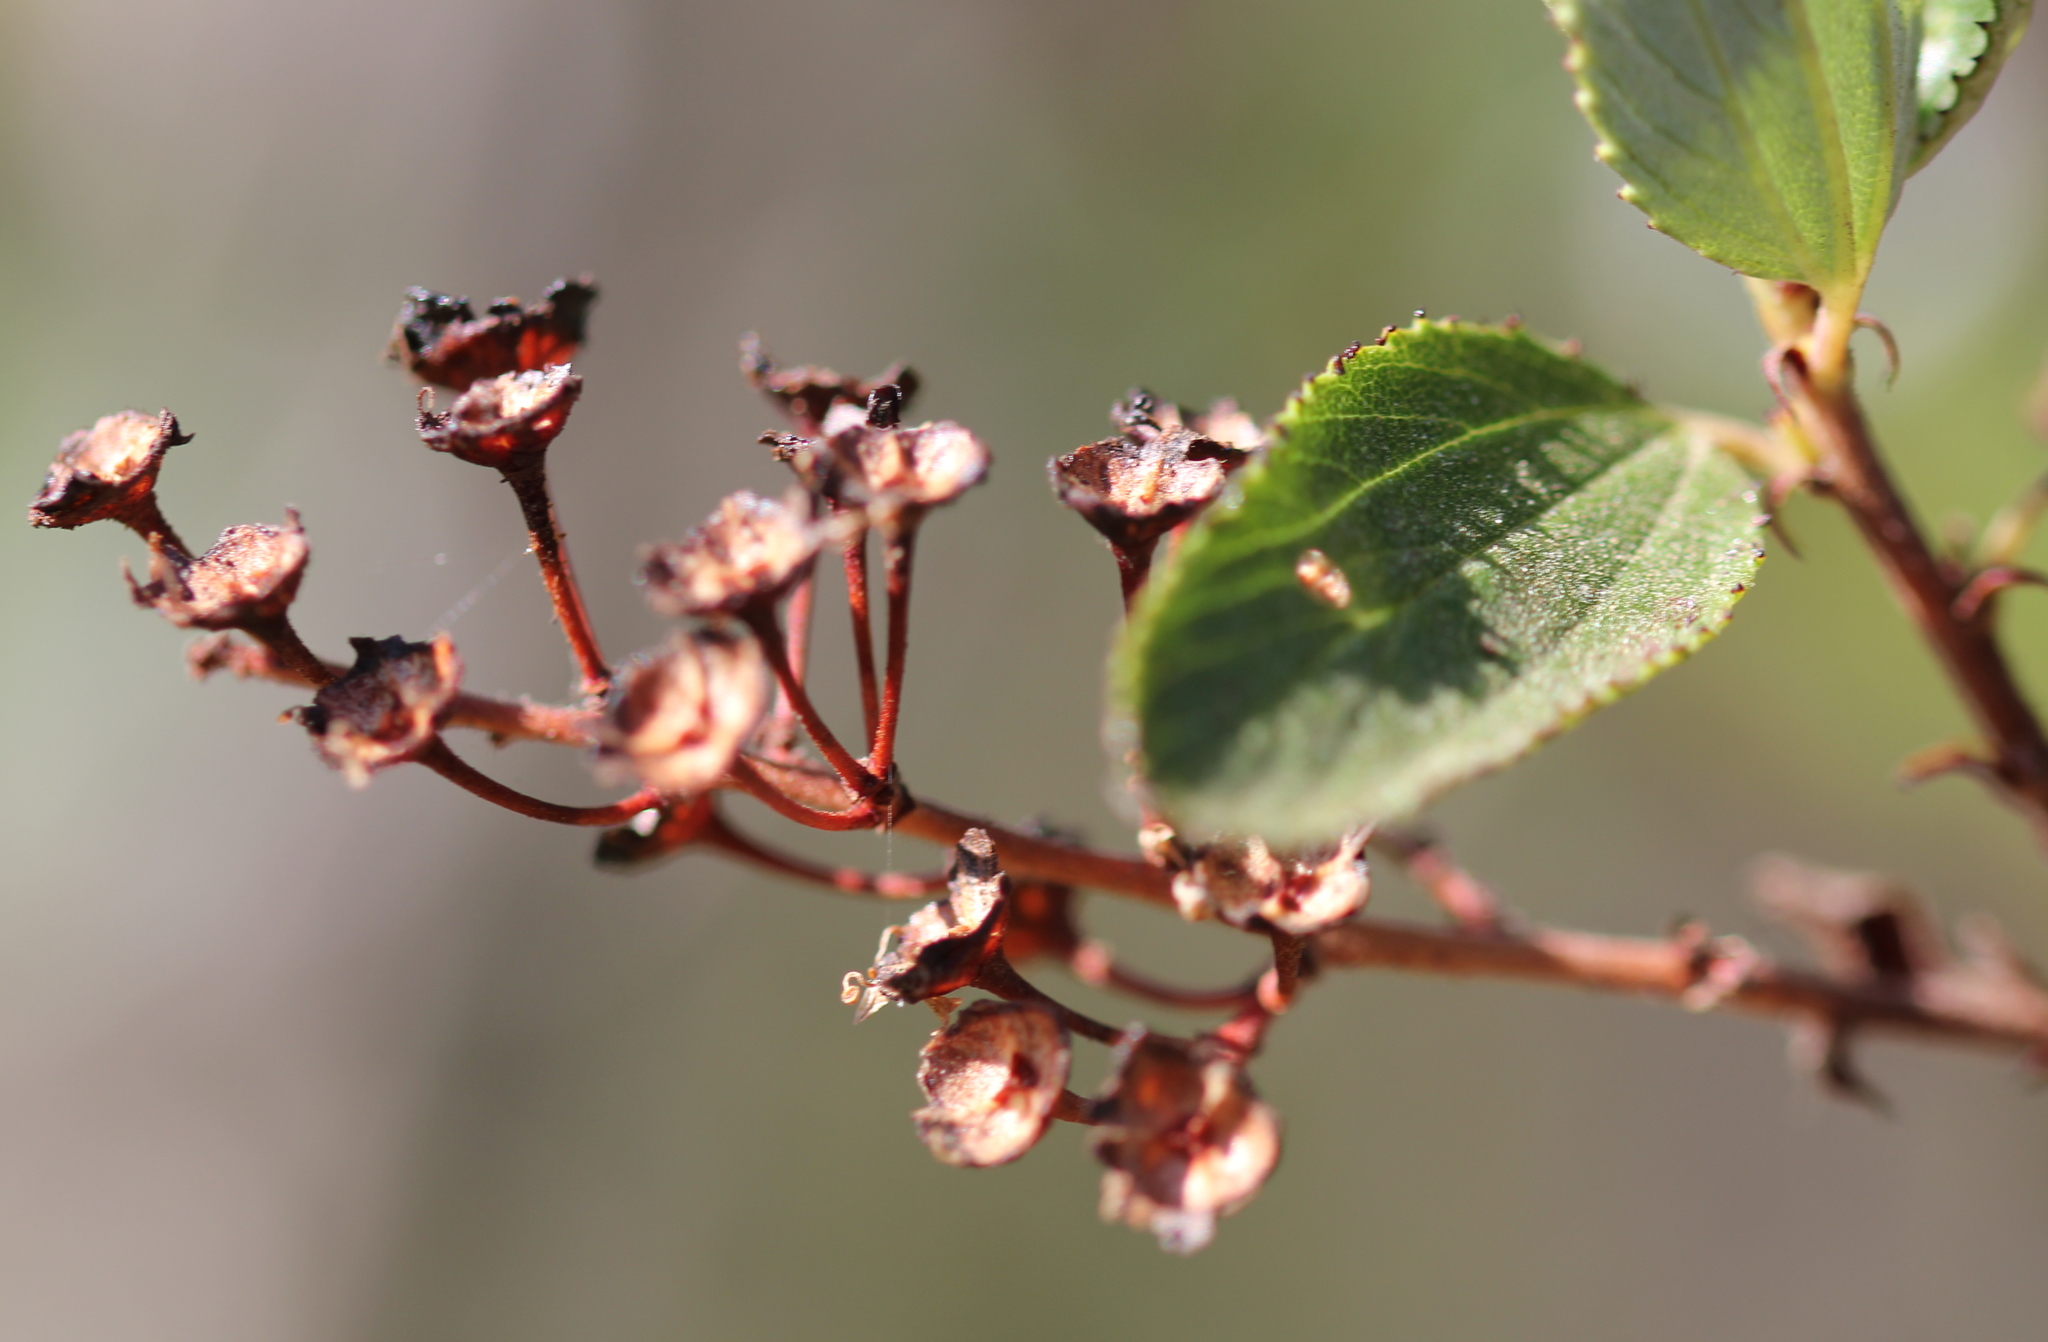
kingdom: Plantae
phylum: Tracheophyta
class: Magnoliopsida
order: Rosales
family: Rhamnaceae
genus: Ceanothus
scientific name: Ceanothus tomentosus
